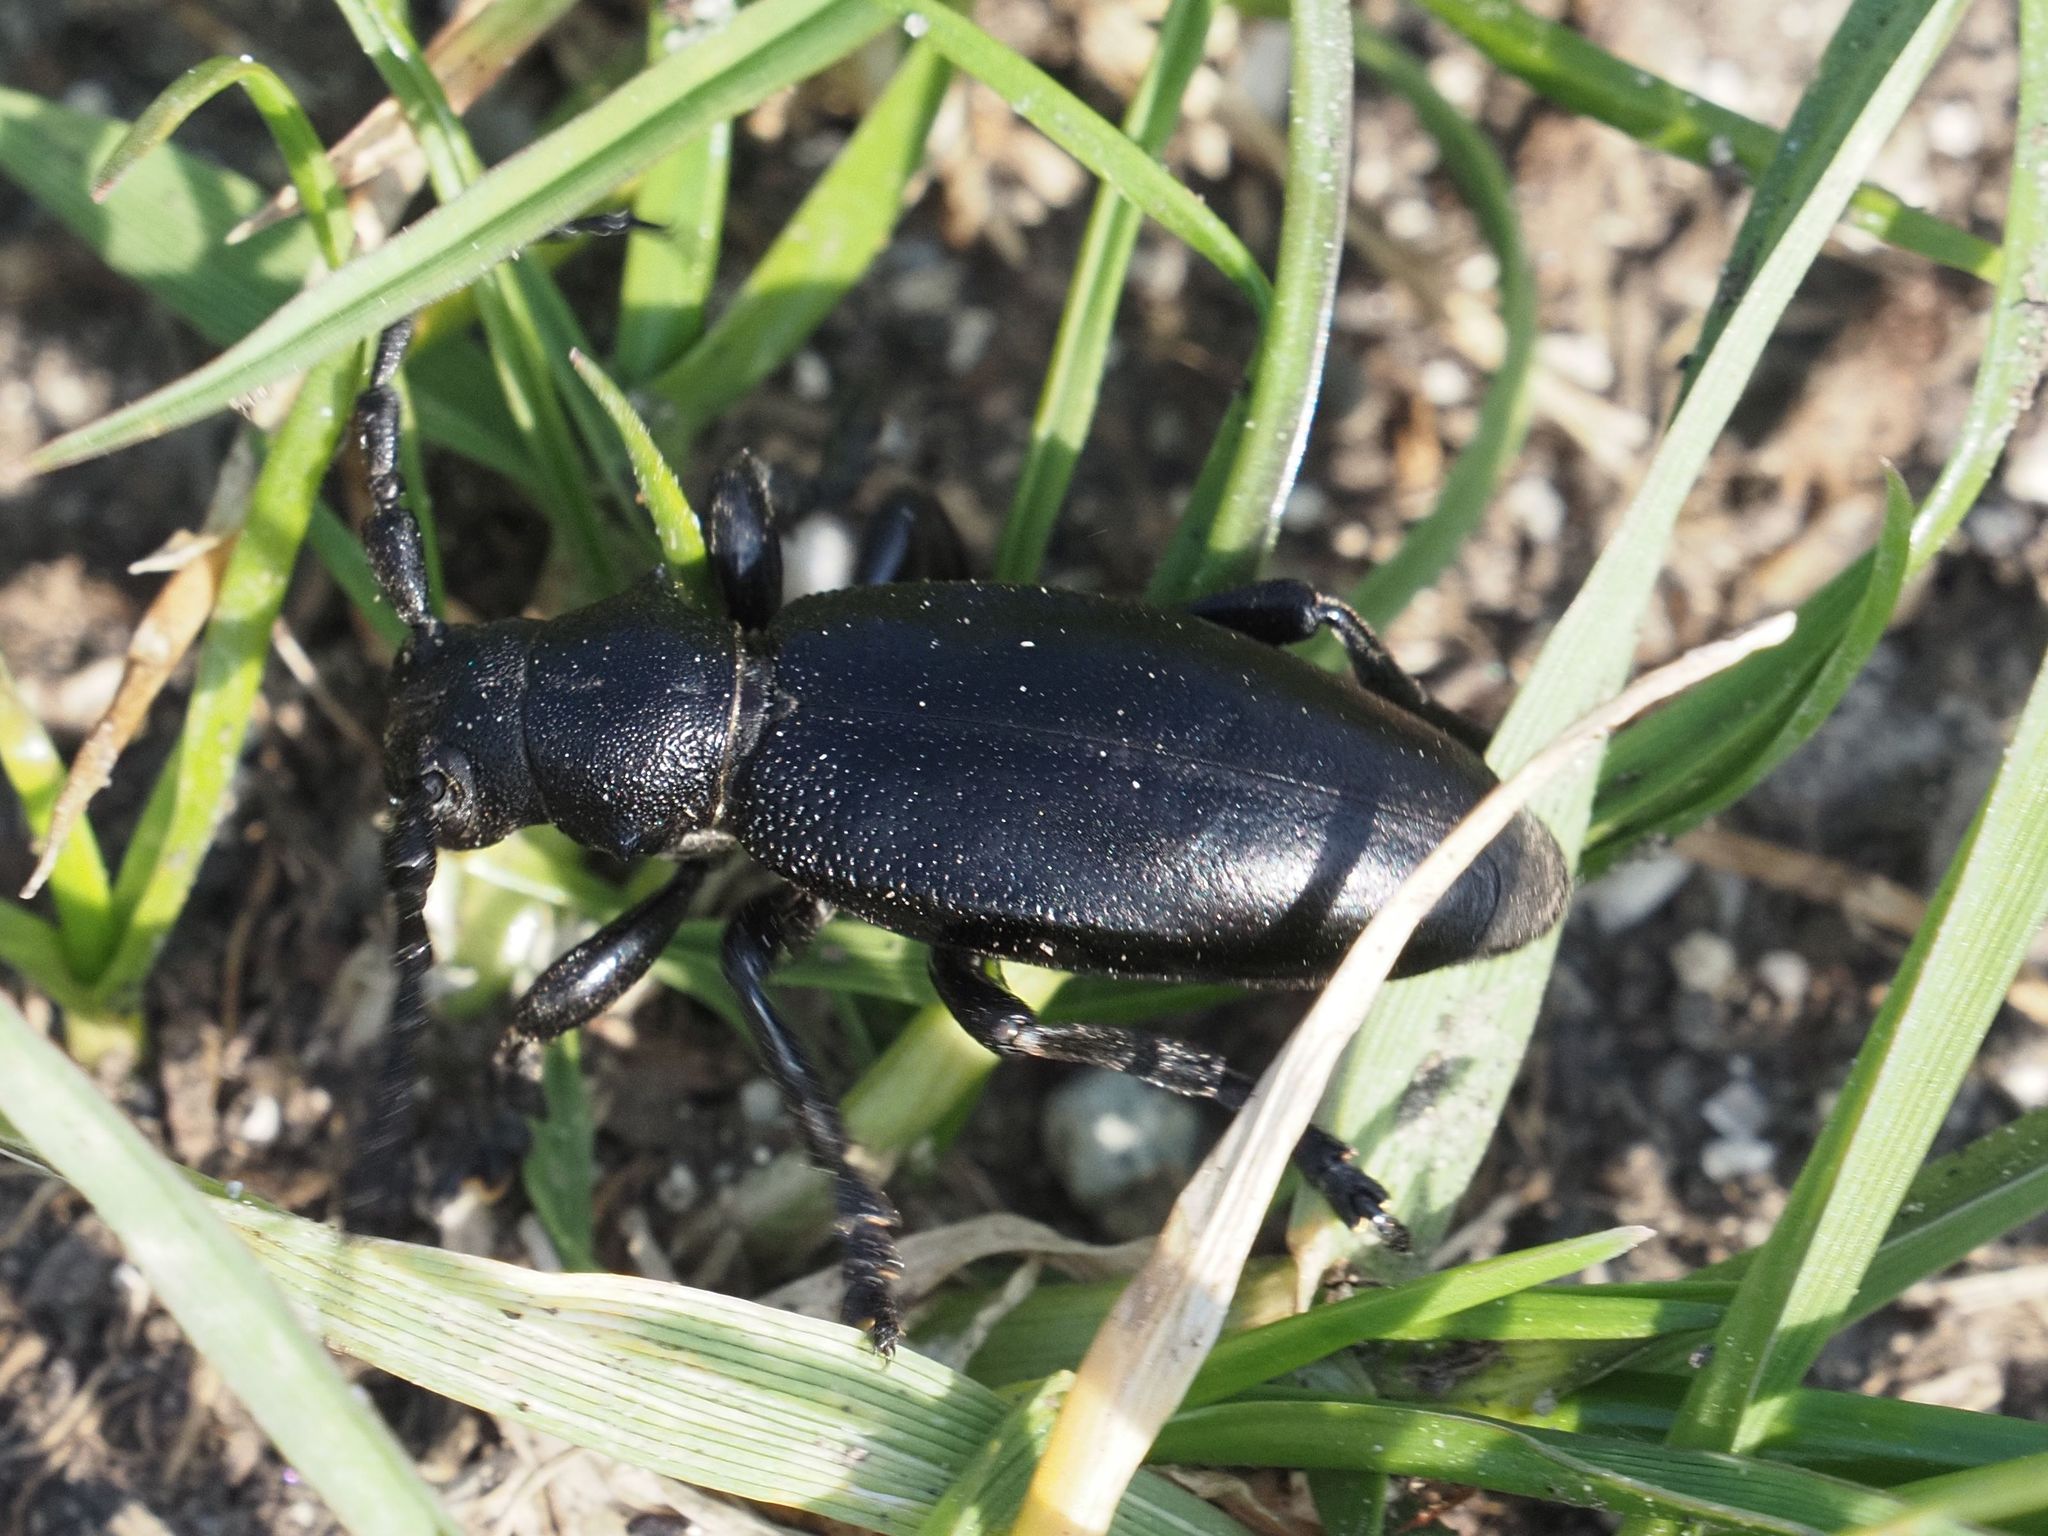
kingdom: Animalia
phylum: Arthropoda
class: Insecta
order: Coleoptera
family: Cerambycidae
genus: Dorcadion
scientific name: Dorcadion aethiops
